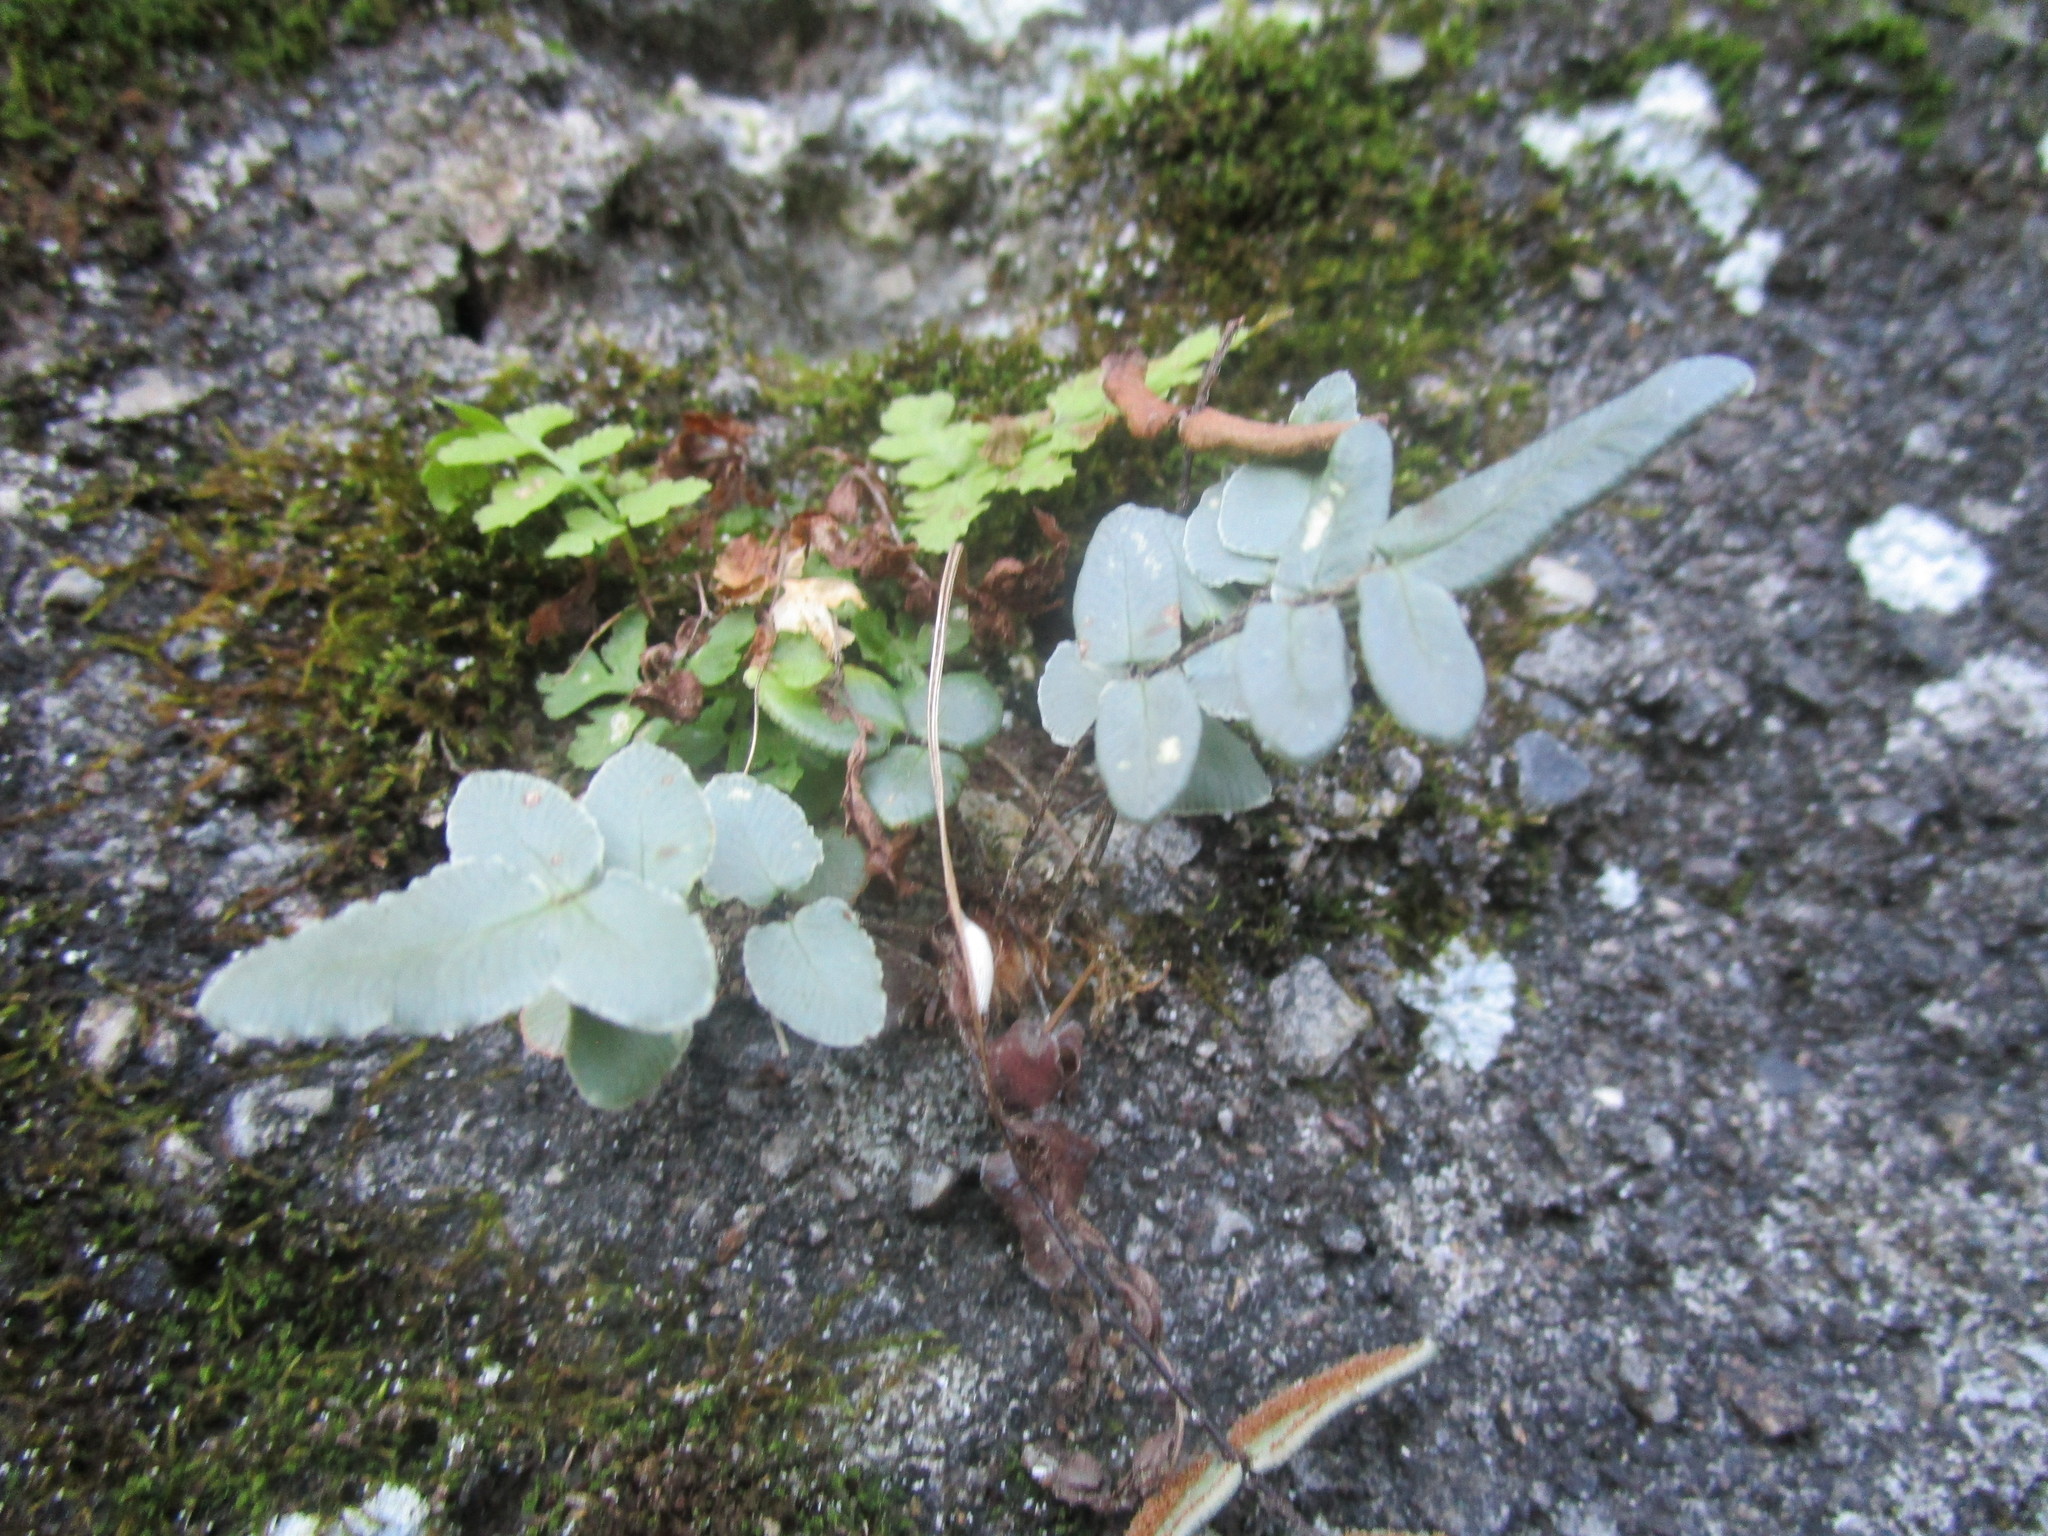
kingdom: Plantae
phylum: Tracheophyta
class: Polypodiopsida
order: Polypodiales
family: Pteridaceae
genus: Pellaea
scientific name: Pellaea atropurpurea
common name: Hairy cliffbrake
